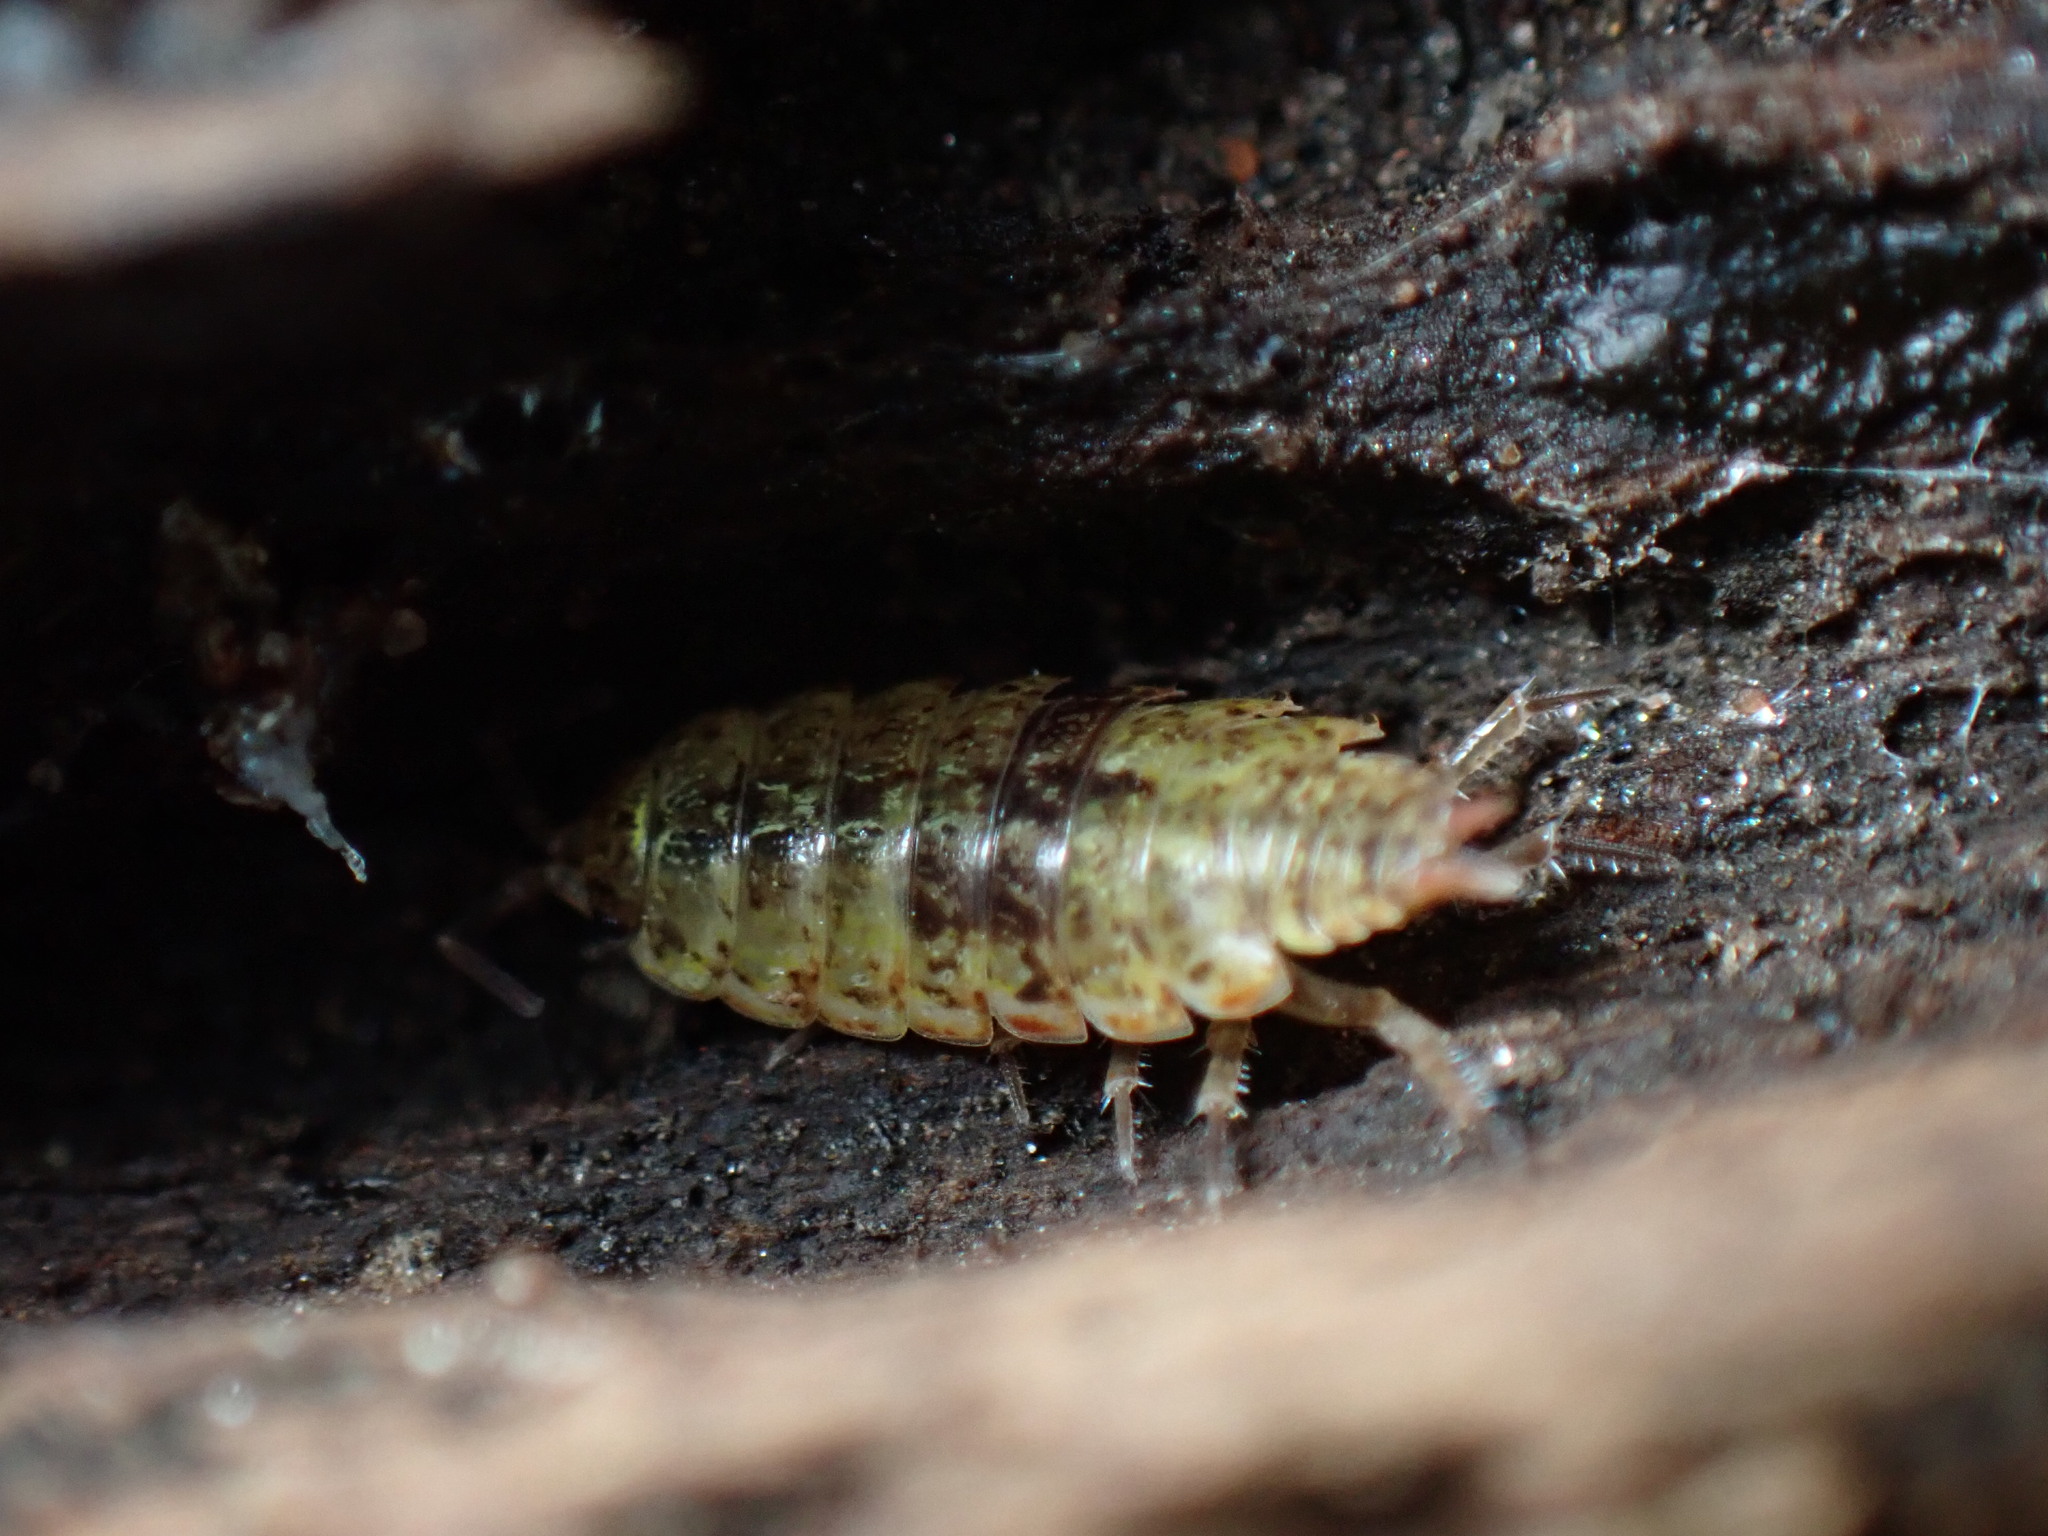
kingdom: Animalia
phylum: Arthropoda
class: Malacostraca
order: Isopoda
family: Philosciidae
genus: Philoscia
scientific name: Philoscia muscorum
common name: Common striped woodlouse
